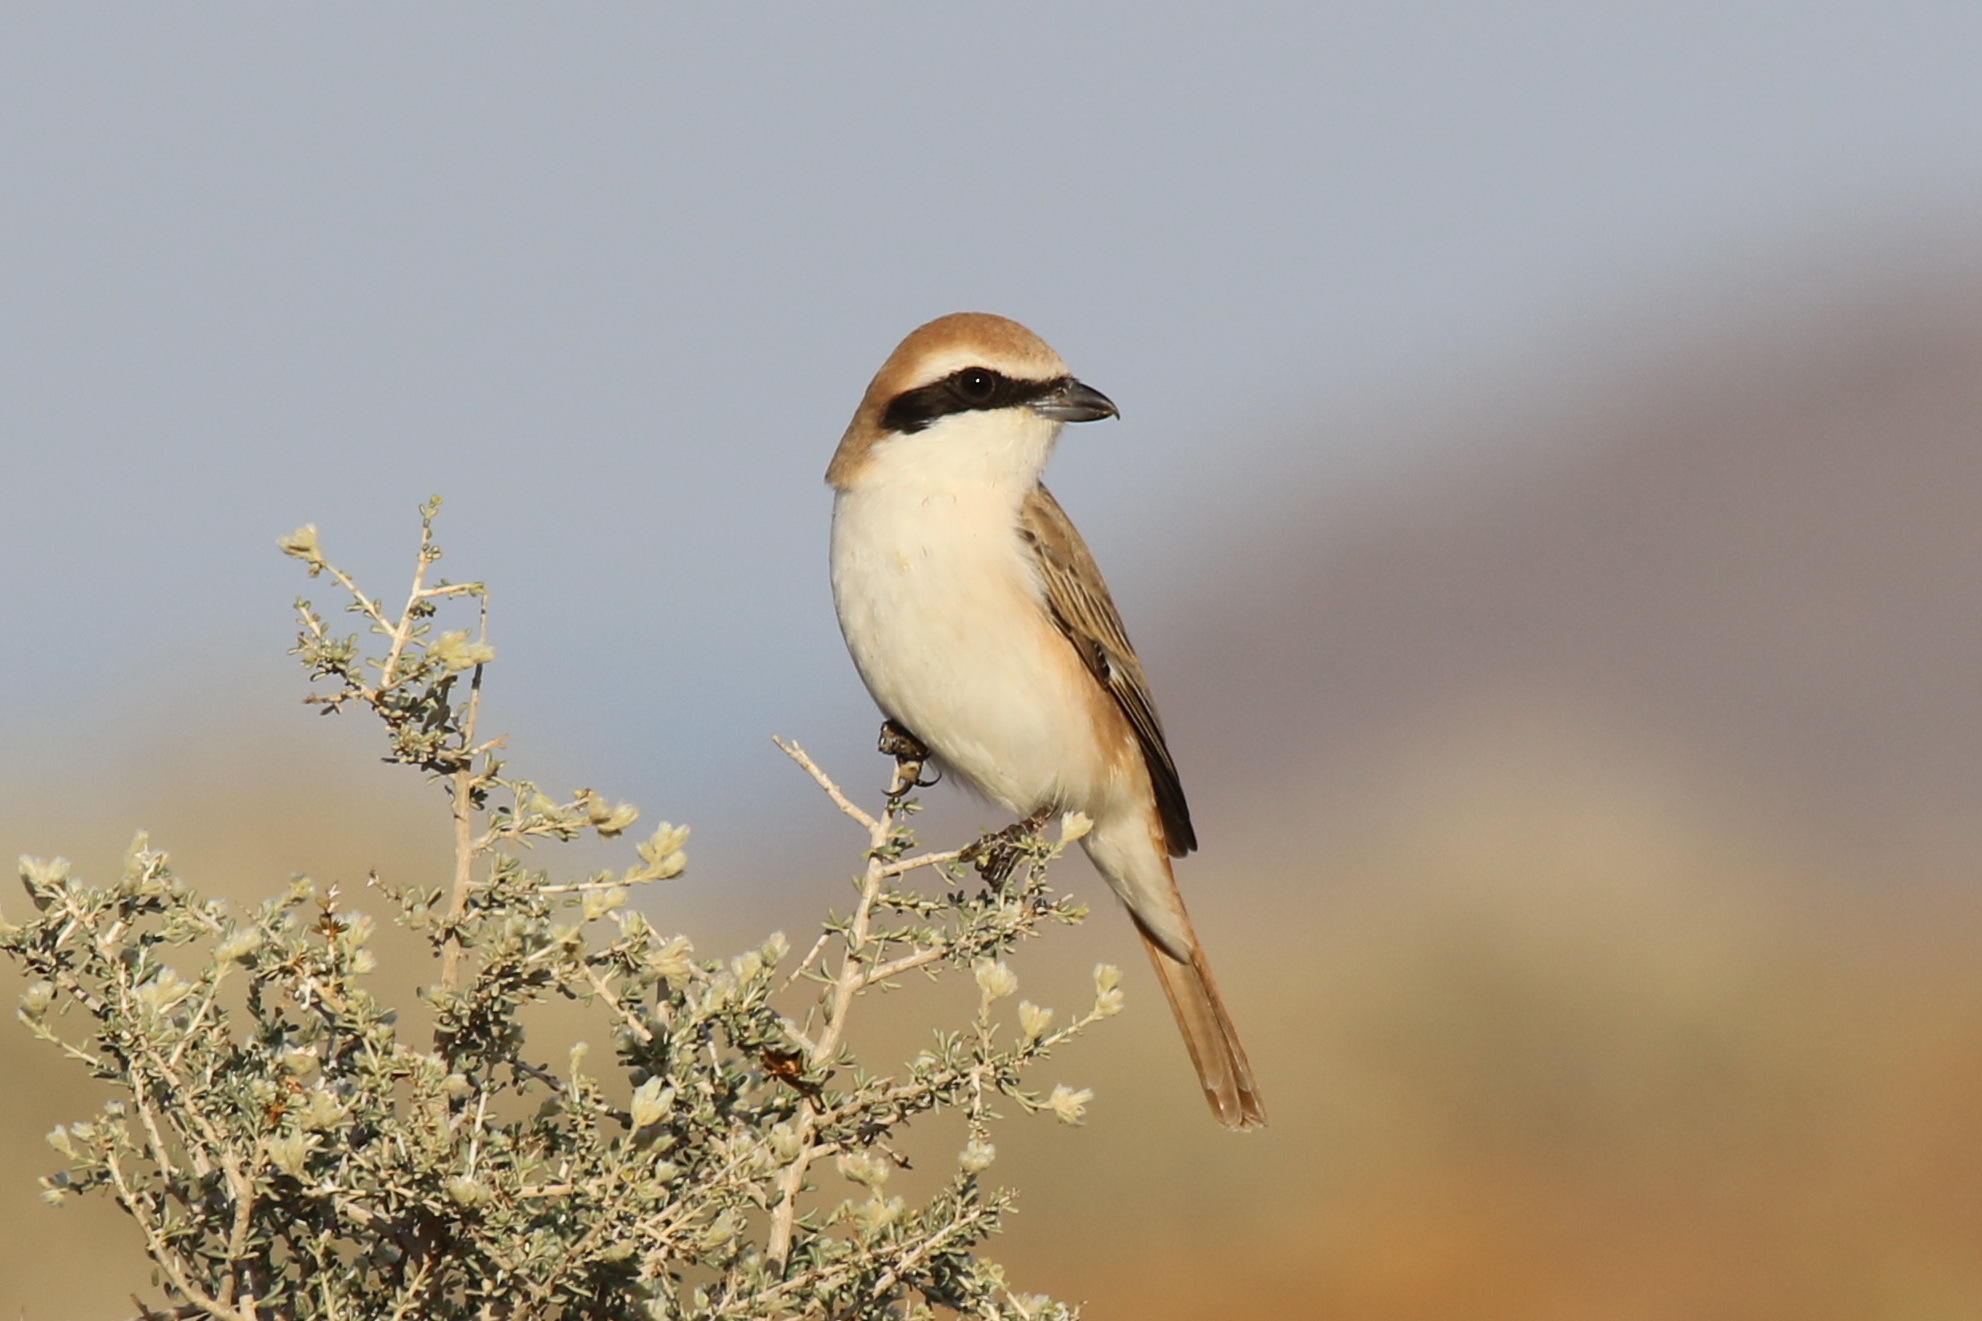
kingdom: Animalia
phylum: Chordata
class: Aves
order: Passeriformes
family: Laniidae
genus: Lanius
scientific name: Lanius phoenicuroides
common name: Red-tailed shrike
